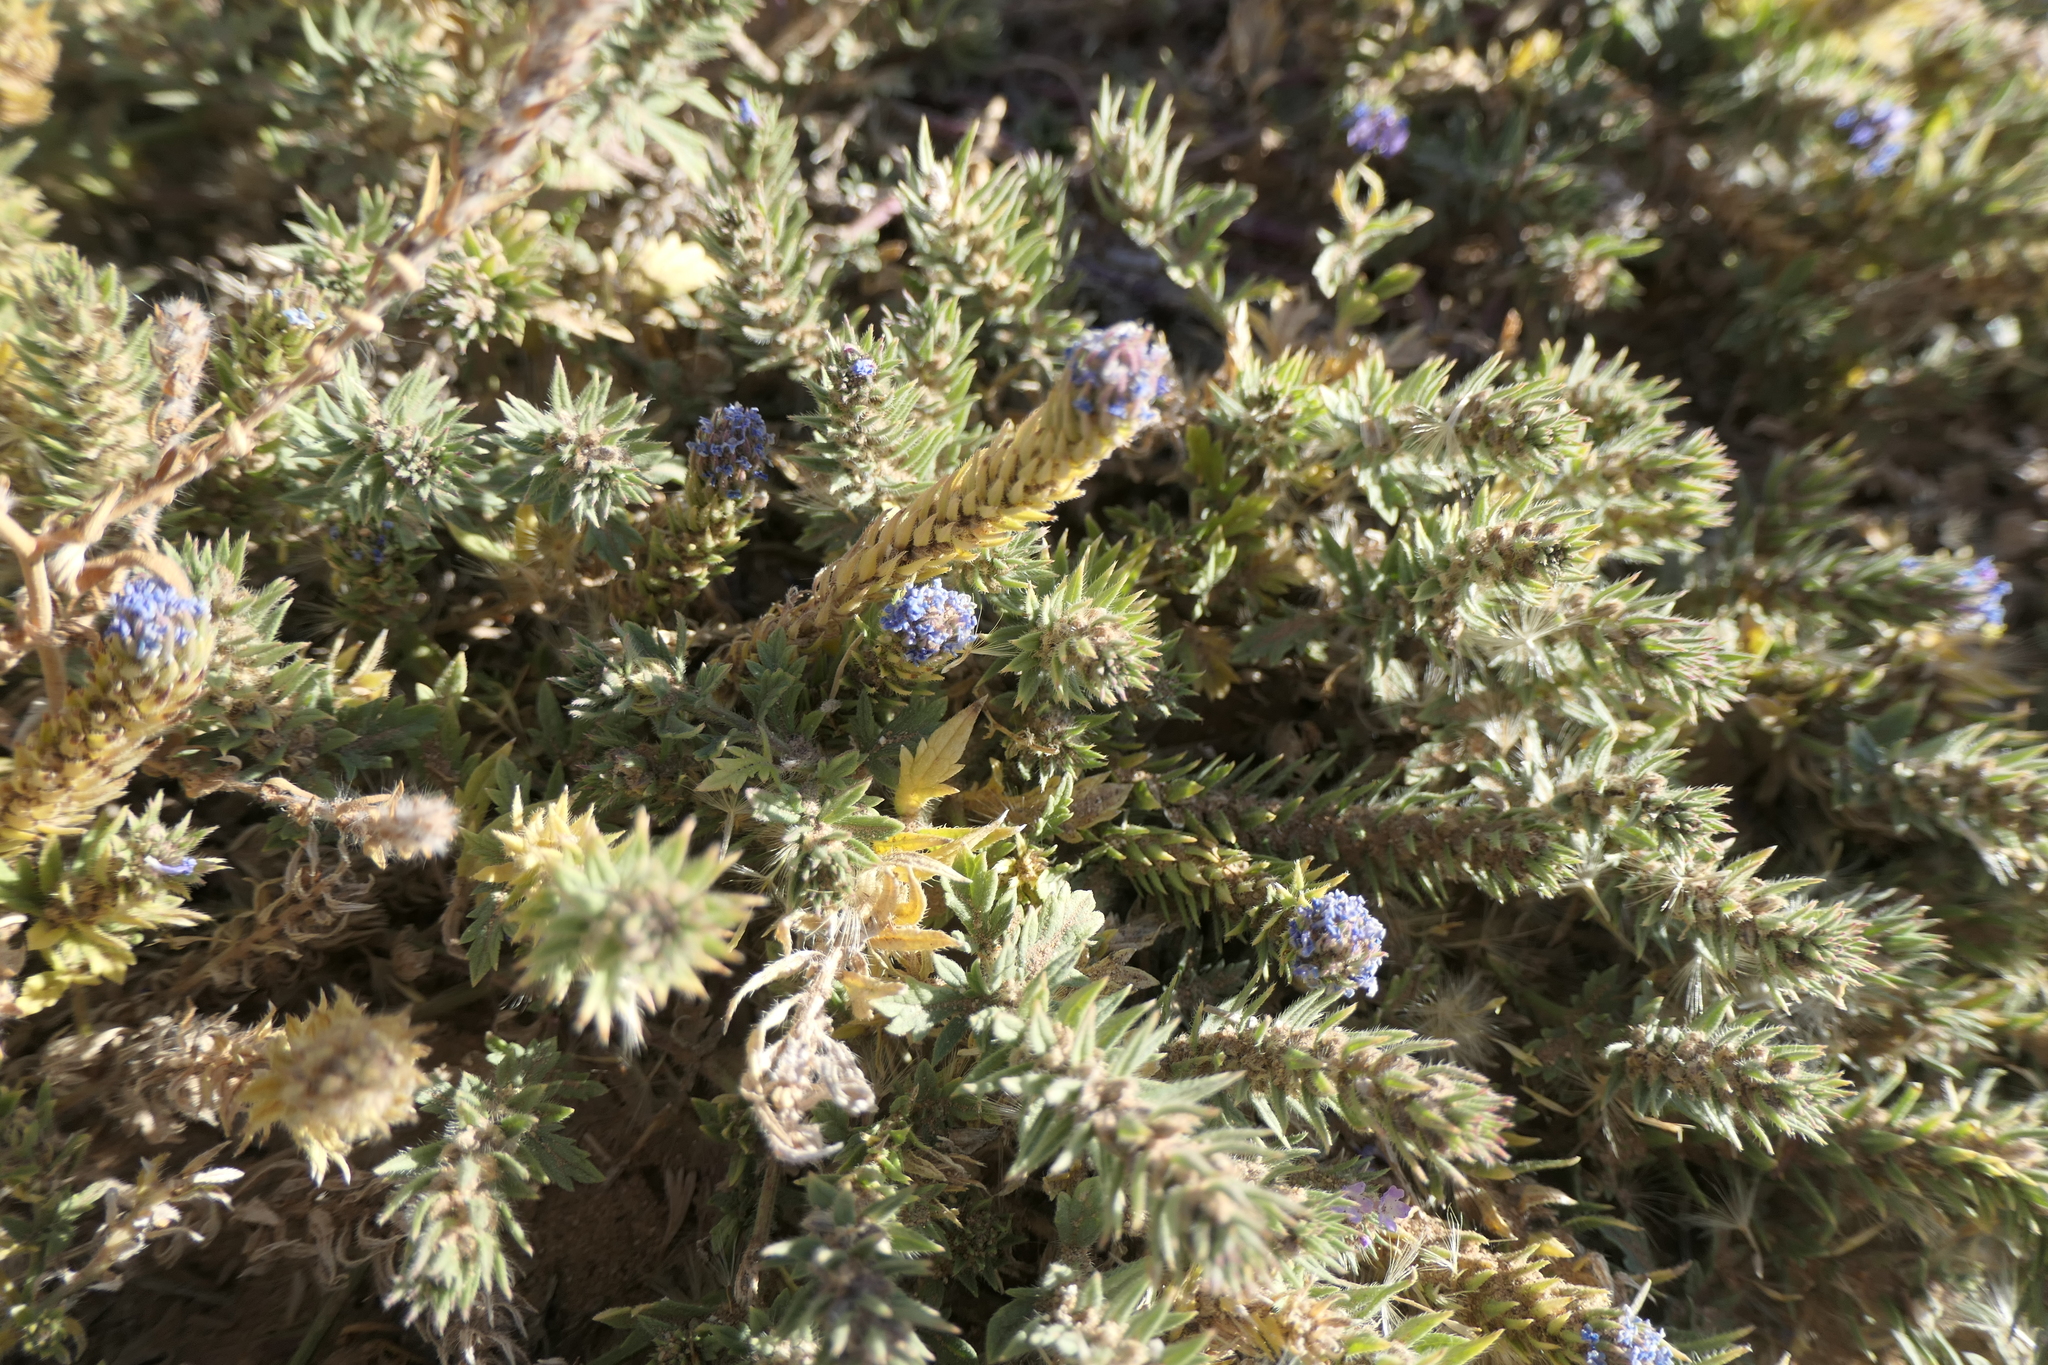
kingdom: Plantae
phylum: Tracheophyta
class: Magnoliopsida
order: Lamiales
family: Verbenaceae
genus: Verbena
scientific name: Verbena bracteata
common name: Bracted vervain
